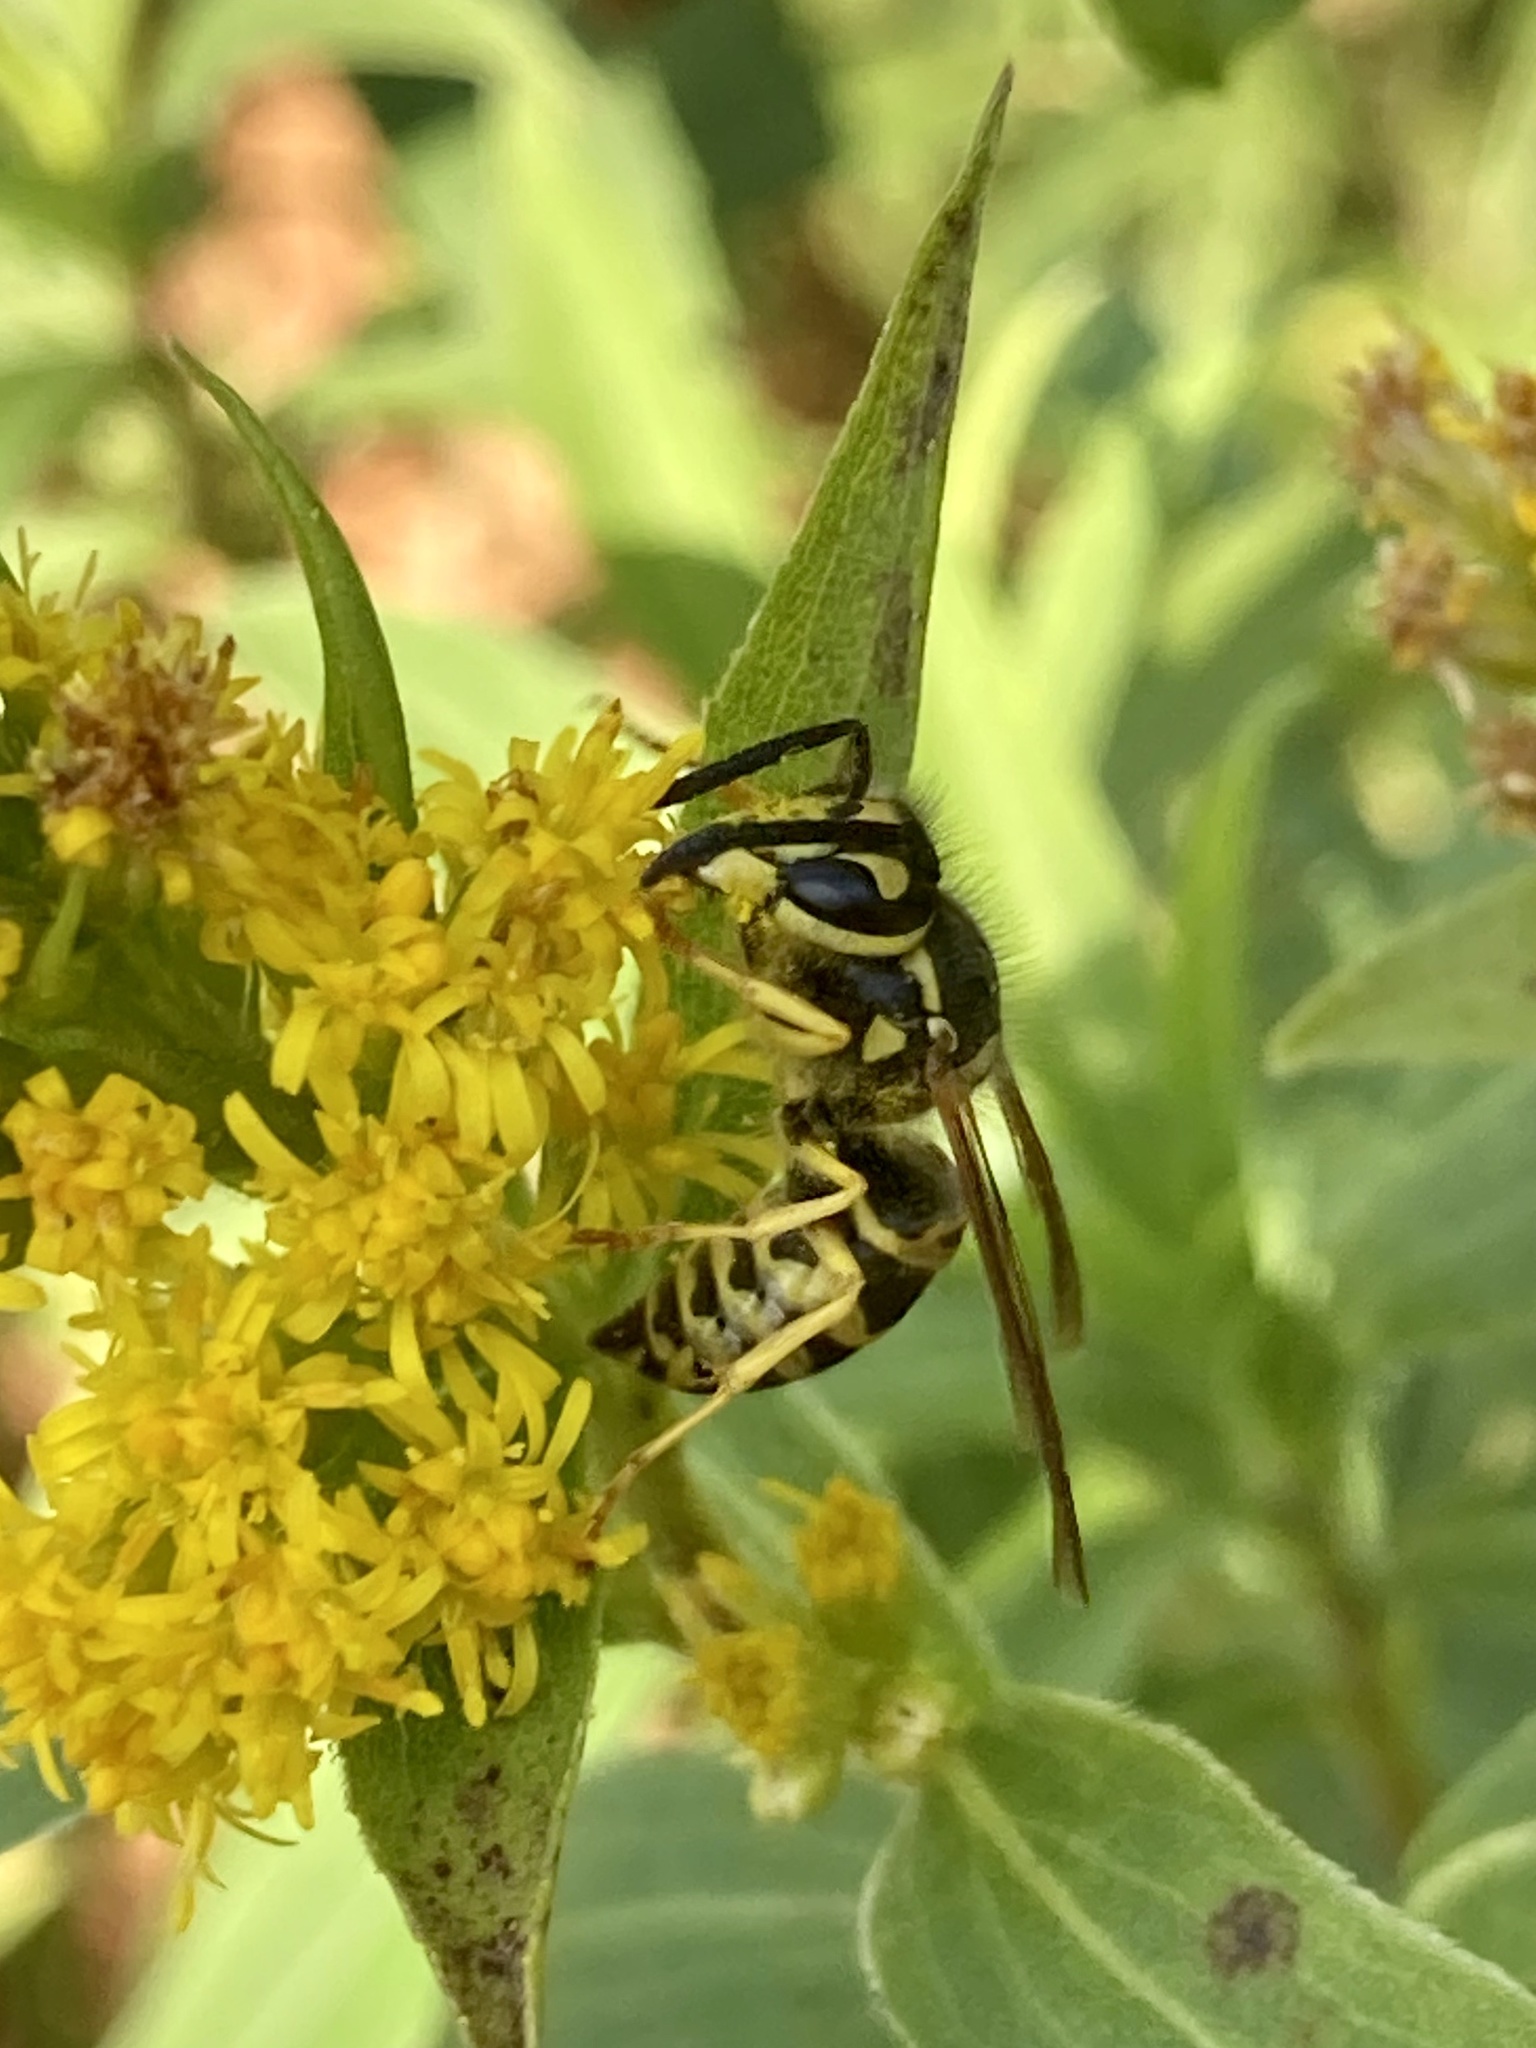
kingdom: Animalia
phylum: Arthropoda
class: Insecta
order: Hymenoptera
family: Vespidae
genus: Vespula
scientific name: Vespula maculifrons
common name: Eastern yellowjacket
